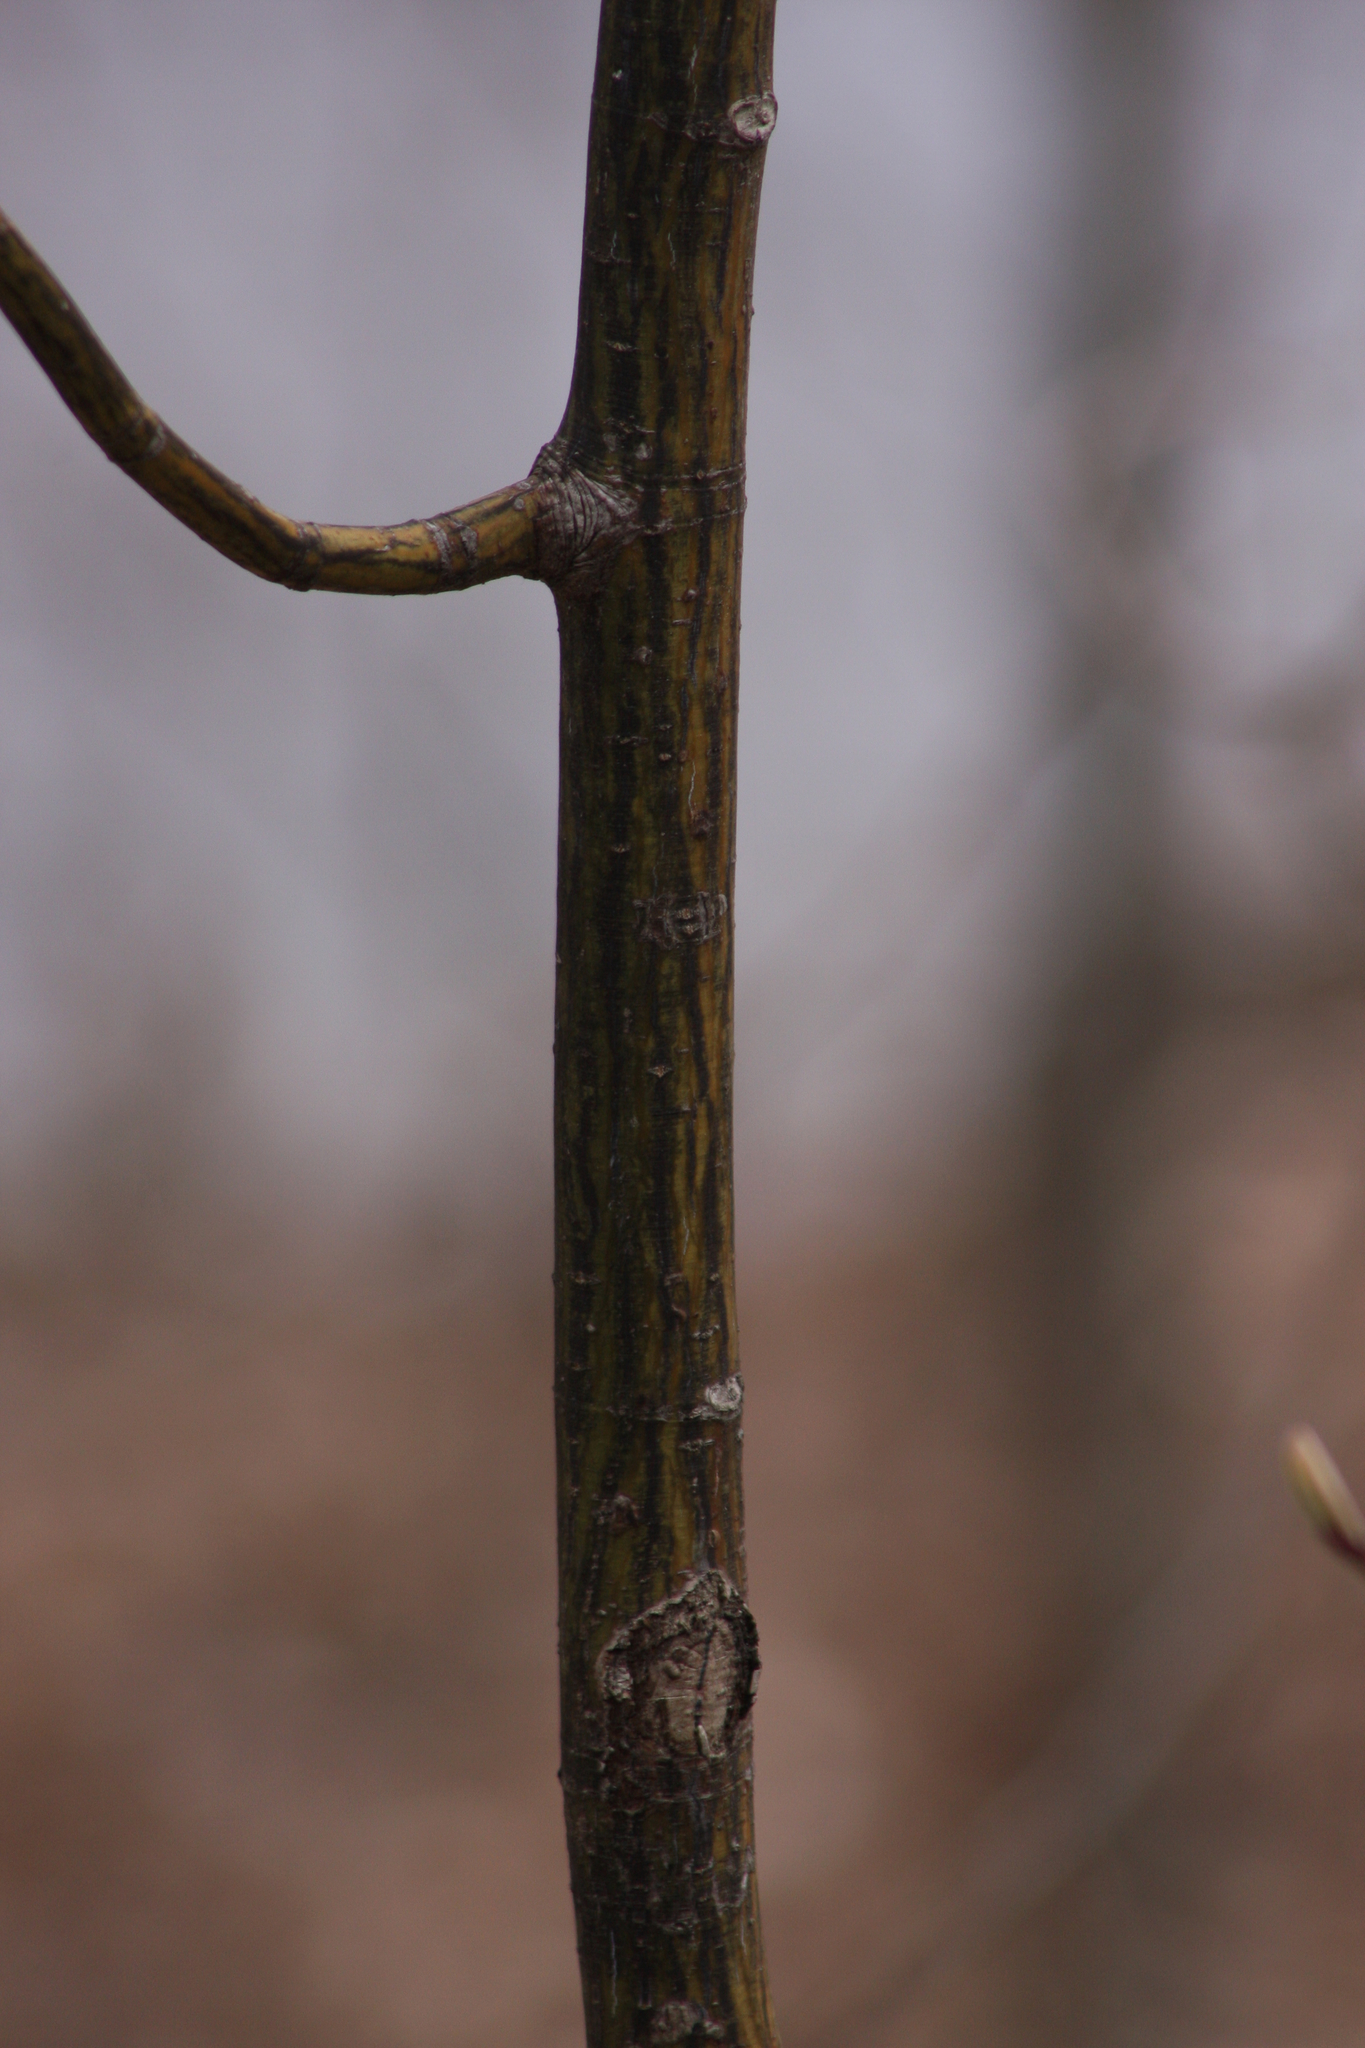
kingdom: Plantae
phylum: Tracheophyta
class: Magnoliopsida
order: Sapindales
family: Sapindaceae
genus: Acer
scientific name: Acer pensylvanicum
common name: Moosewood
